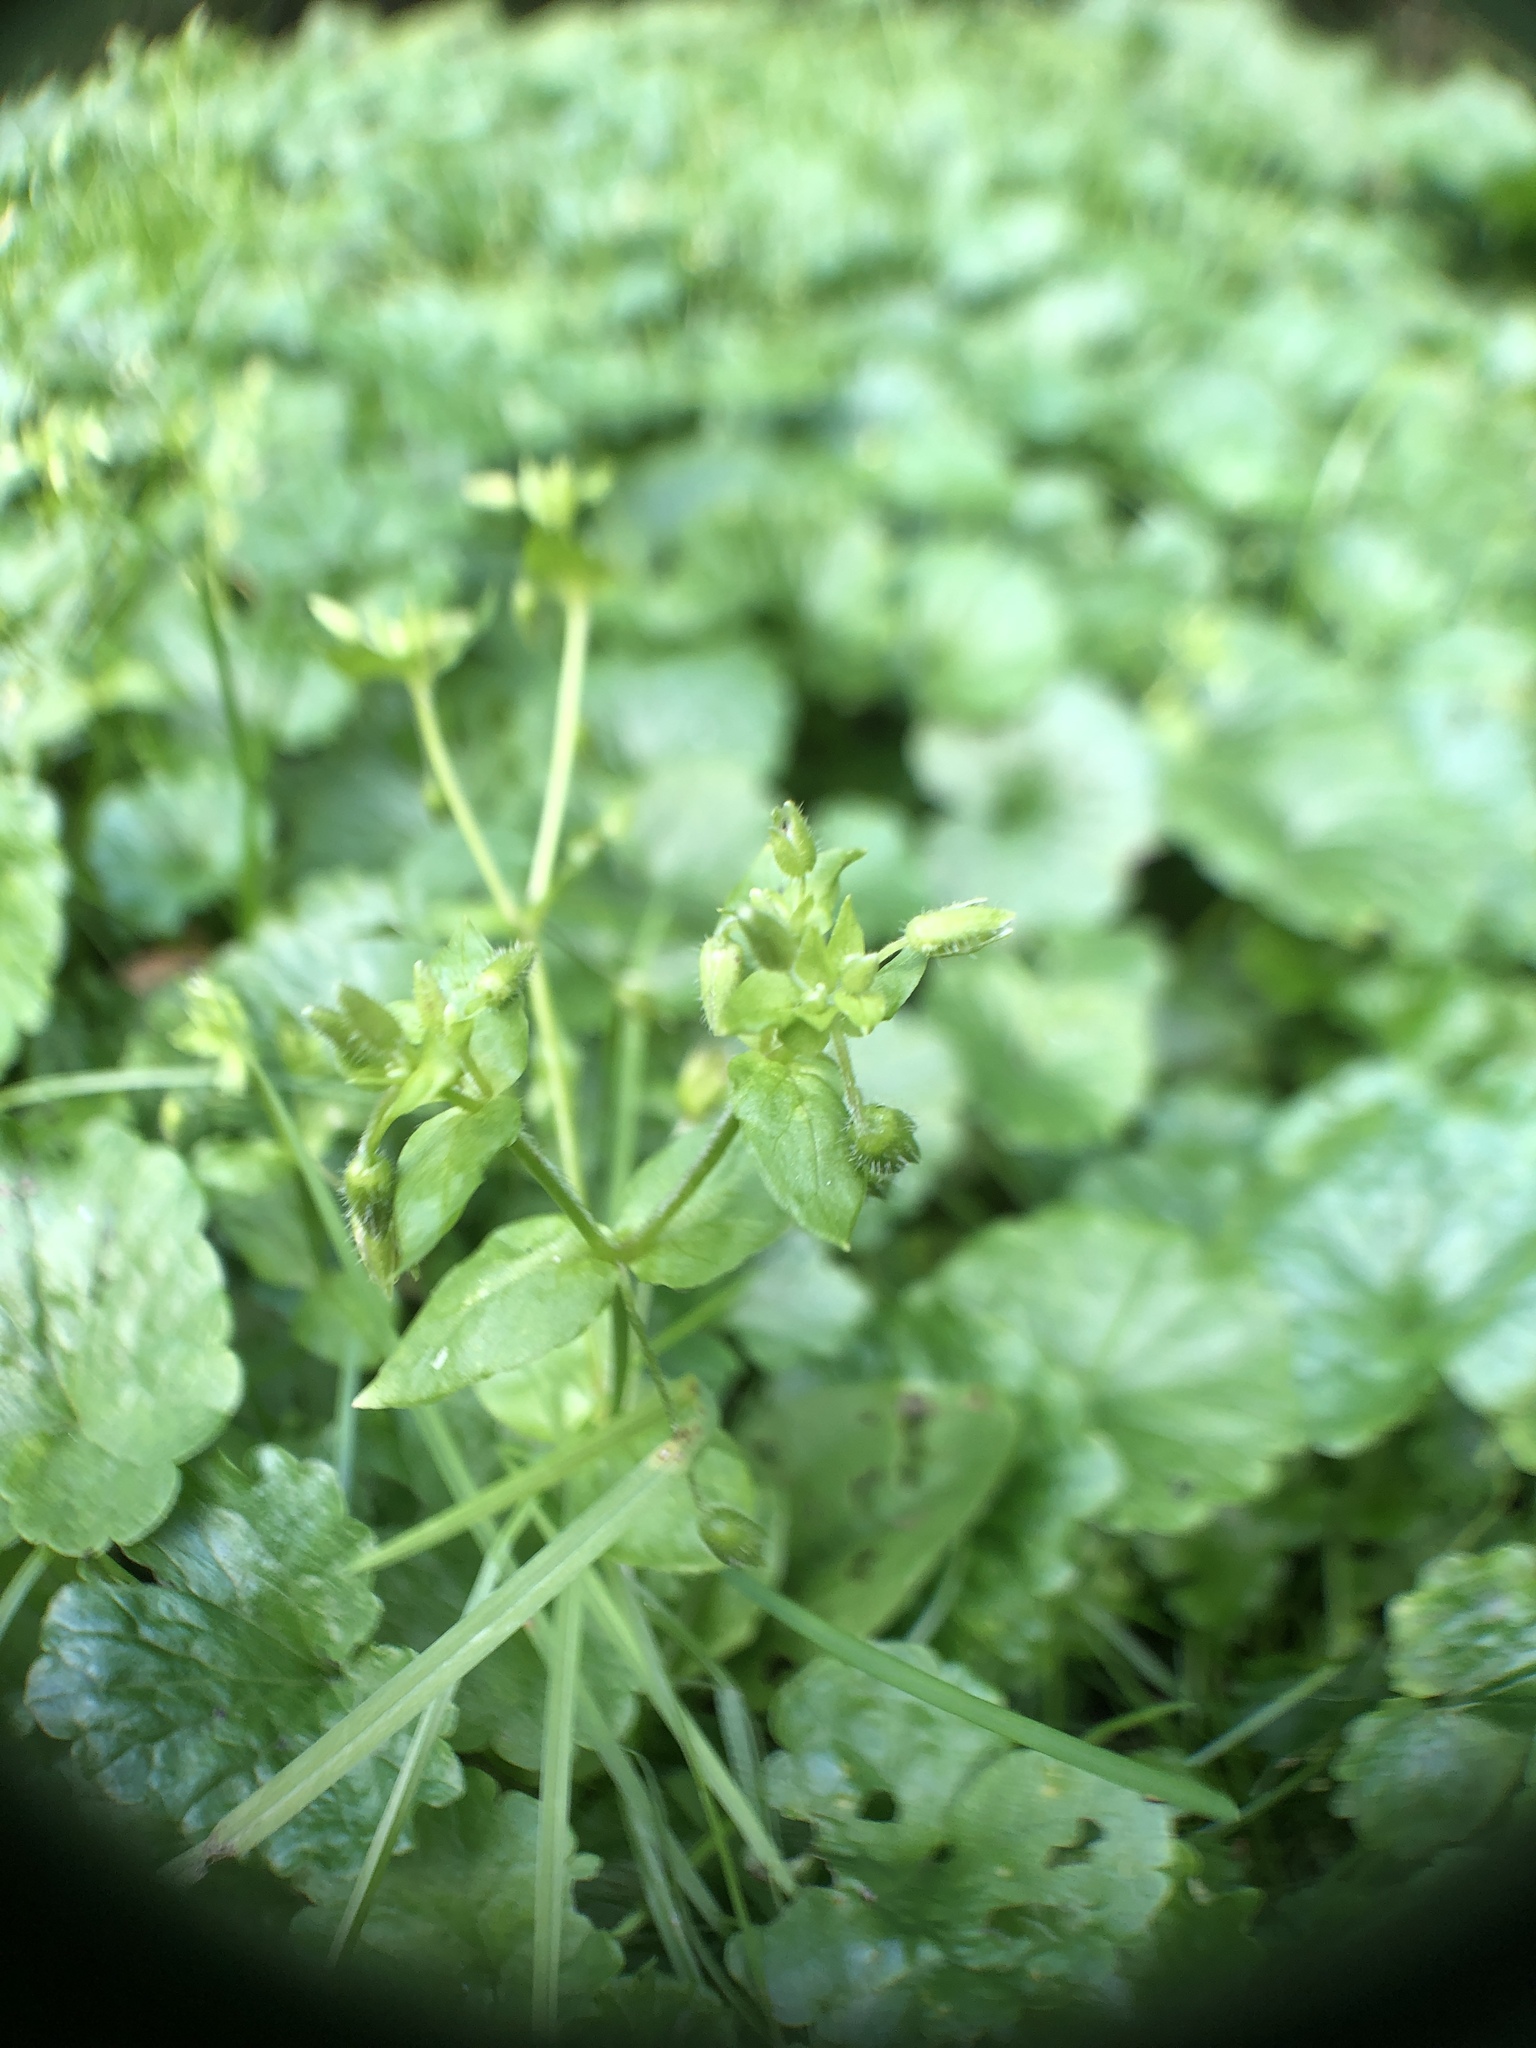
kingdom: Plantae
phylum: Tracheophyta
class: Magnoliopsida
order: Caryophyllales
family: Caryophyllaceae
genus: Stellaria
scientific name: Stellaria media
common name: Common chickweed
